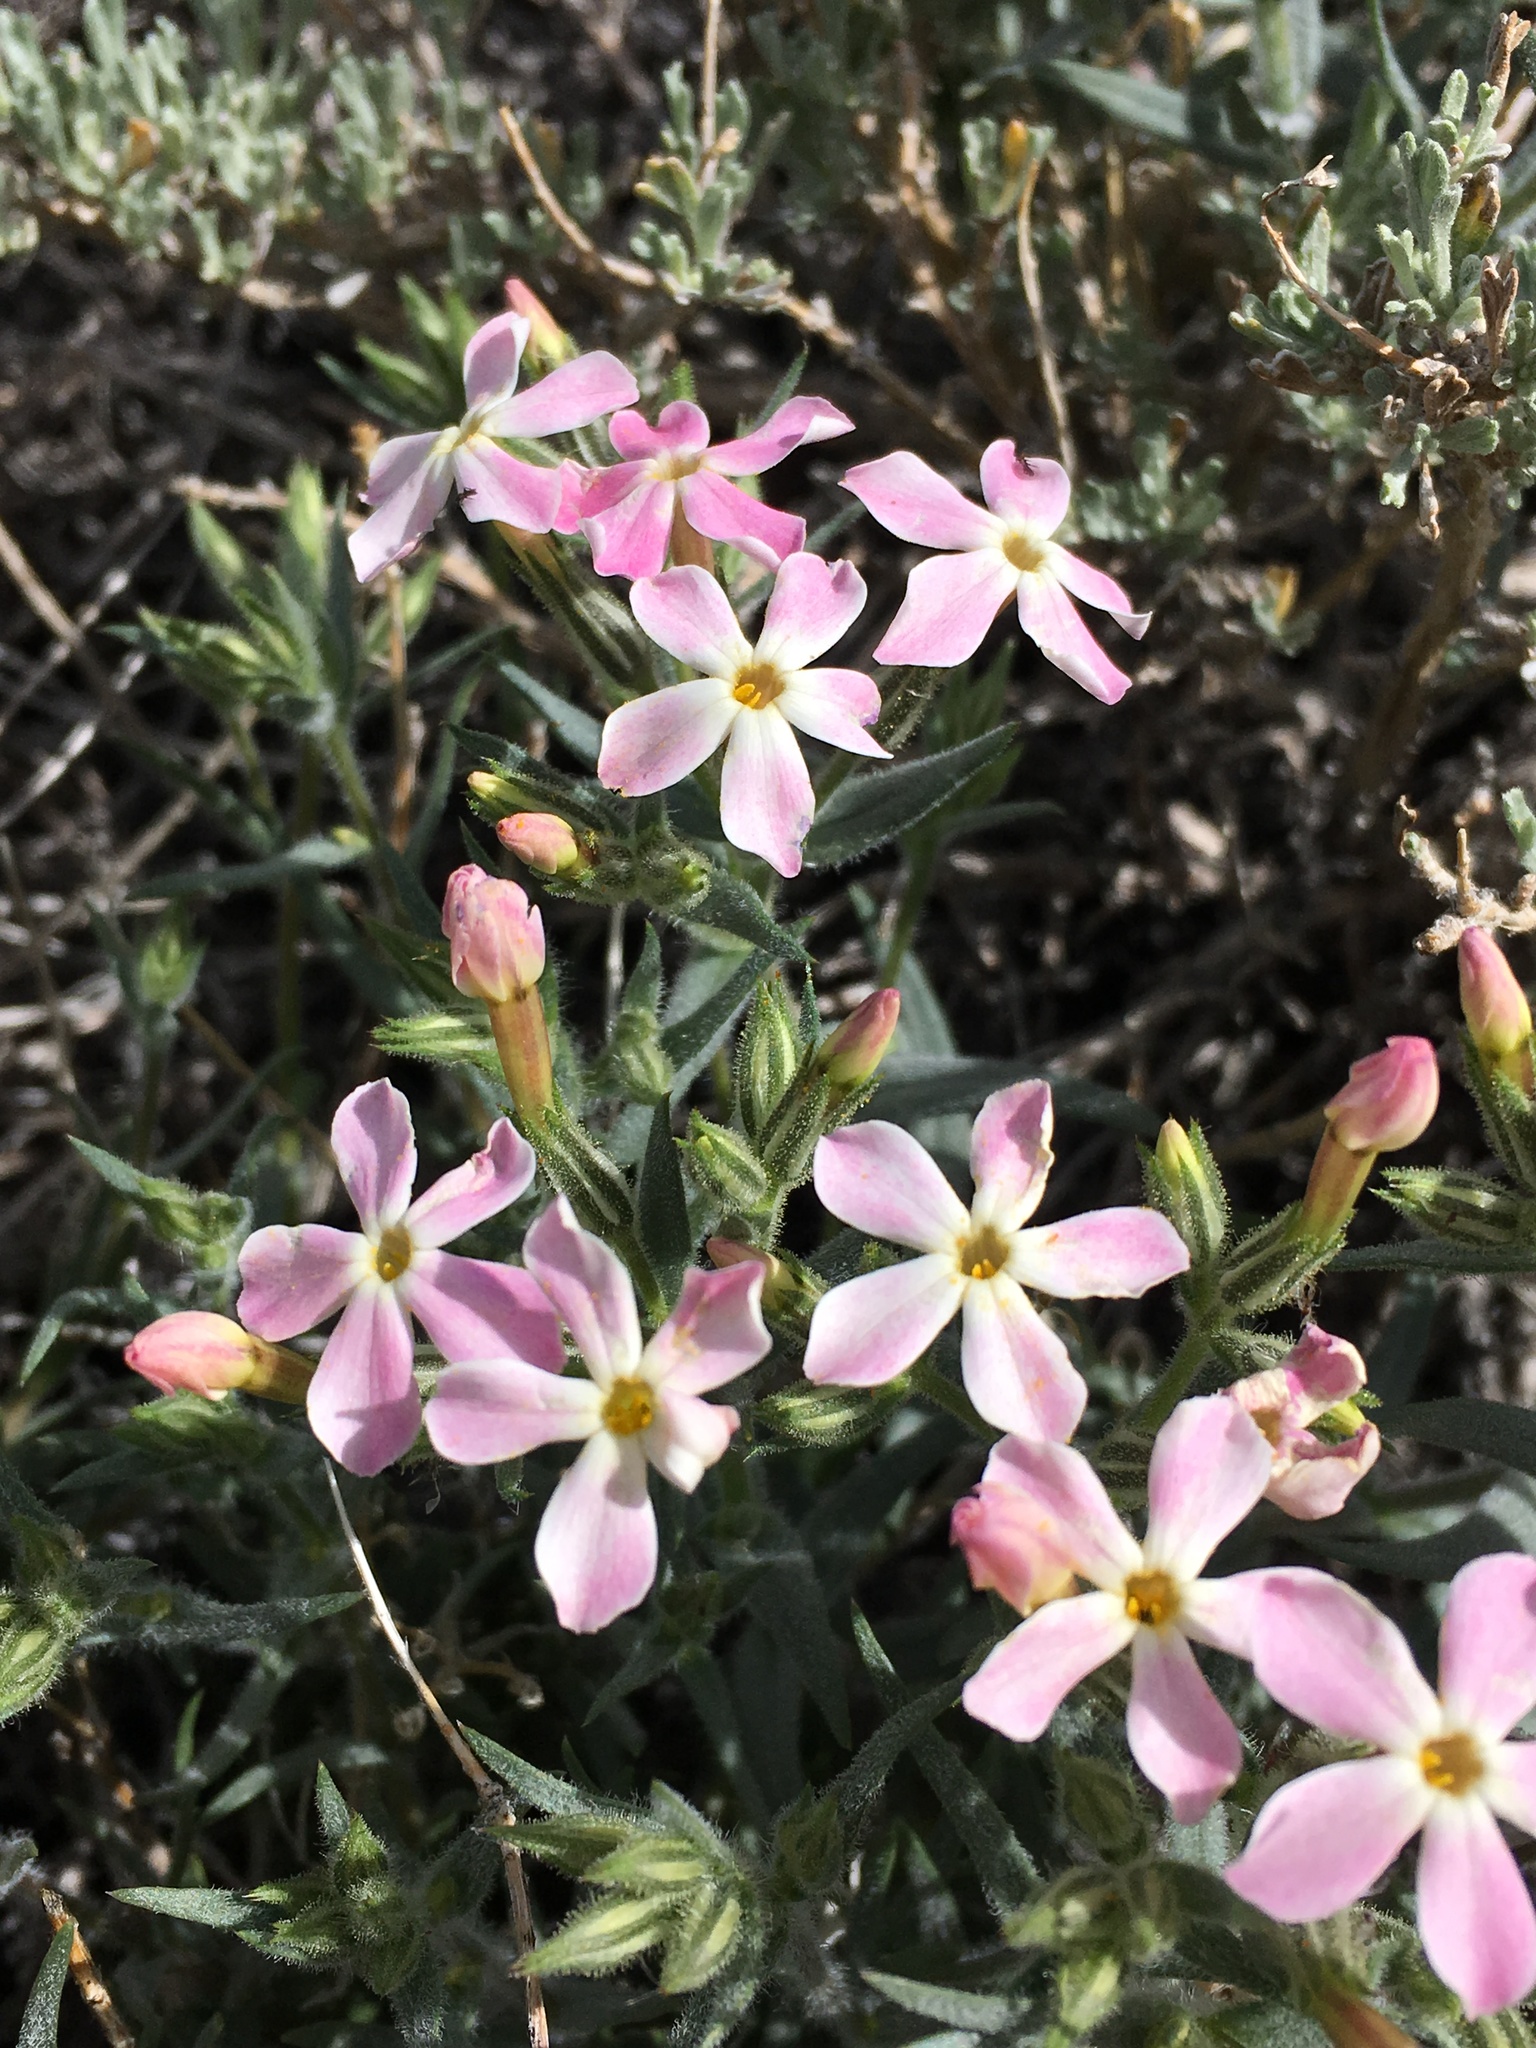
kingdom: Plantae
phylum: Tracheophyta
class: Magnoliopsida
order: Ericales
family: Polemoniaceae
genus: Phlox
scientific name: Phlox longifolia
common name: Longleaf phlox
